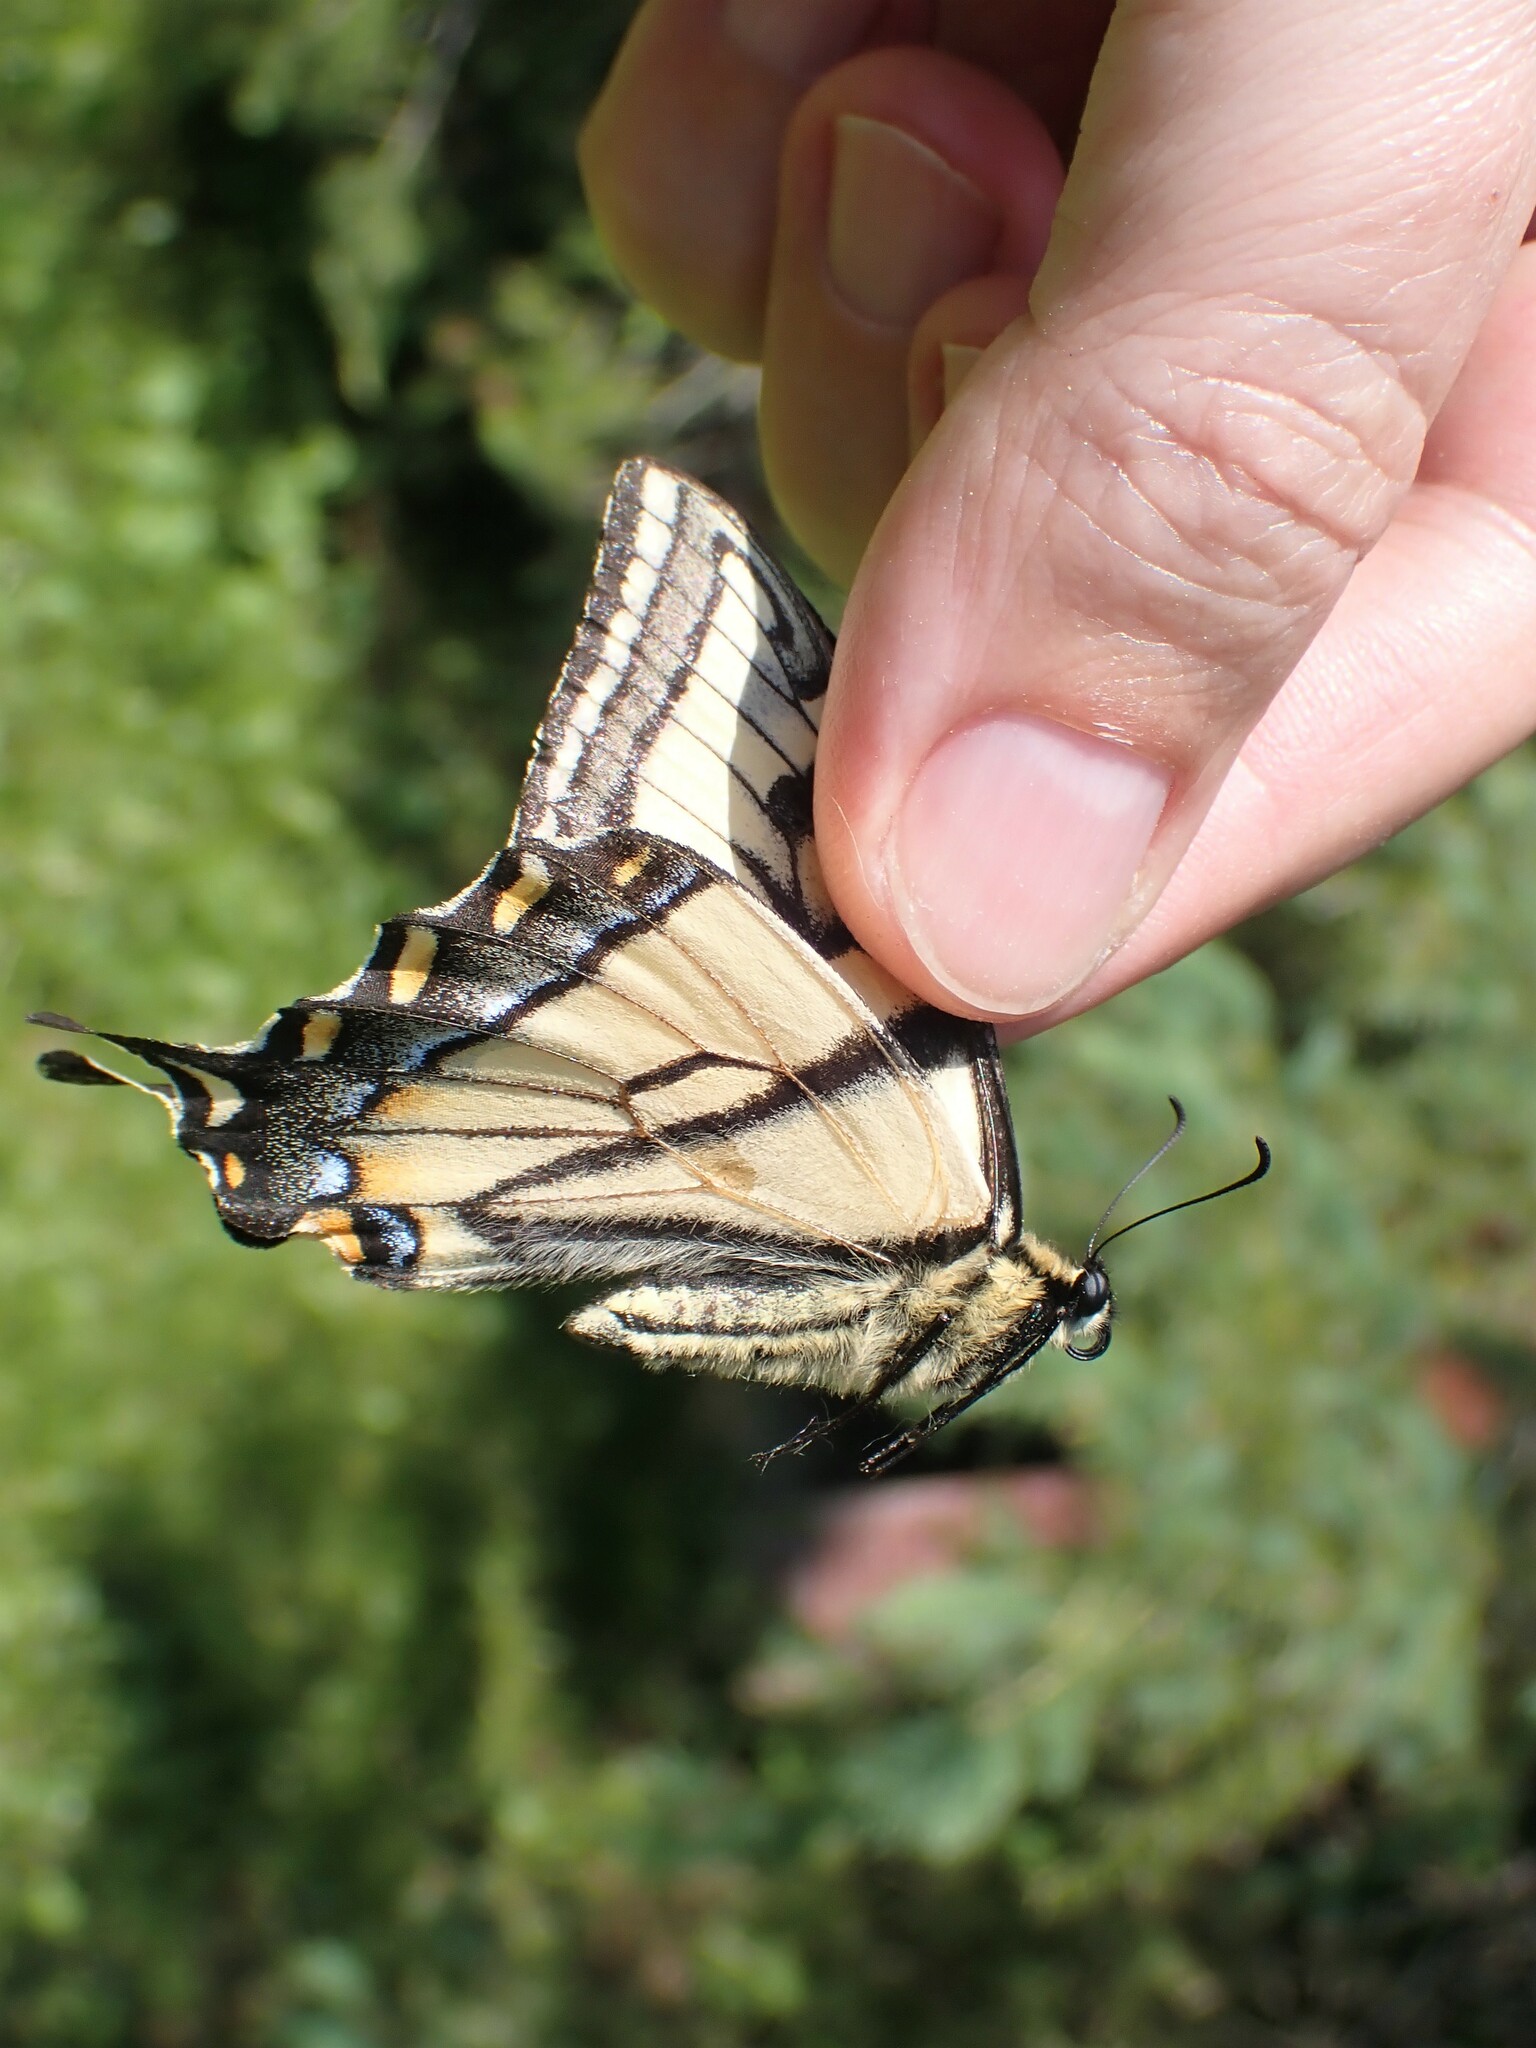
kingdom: Animalia
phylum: Arthropoda
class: Insecta
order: Lepidoptera
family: Papilionidae
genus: Papilio
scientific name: Papilio canadensis
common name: Canadian tiger swallowtail
